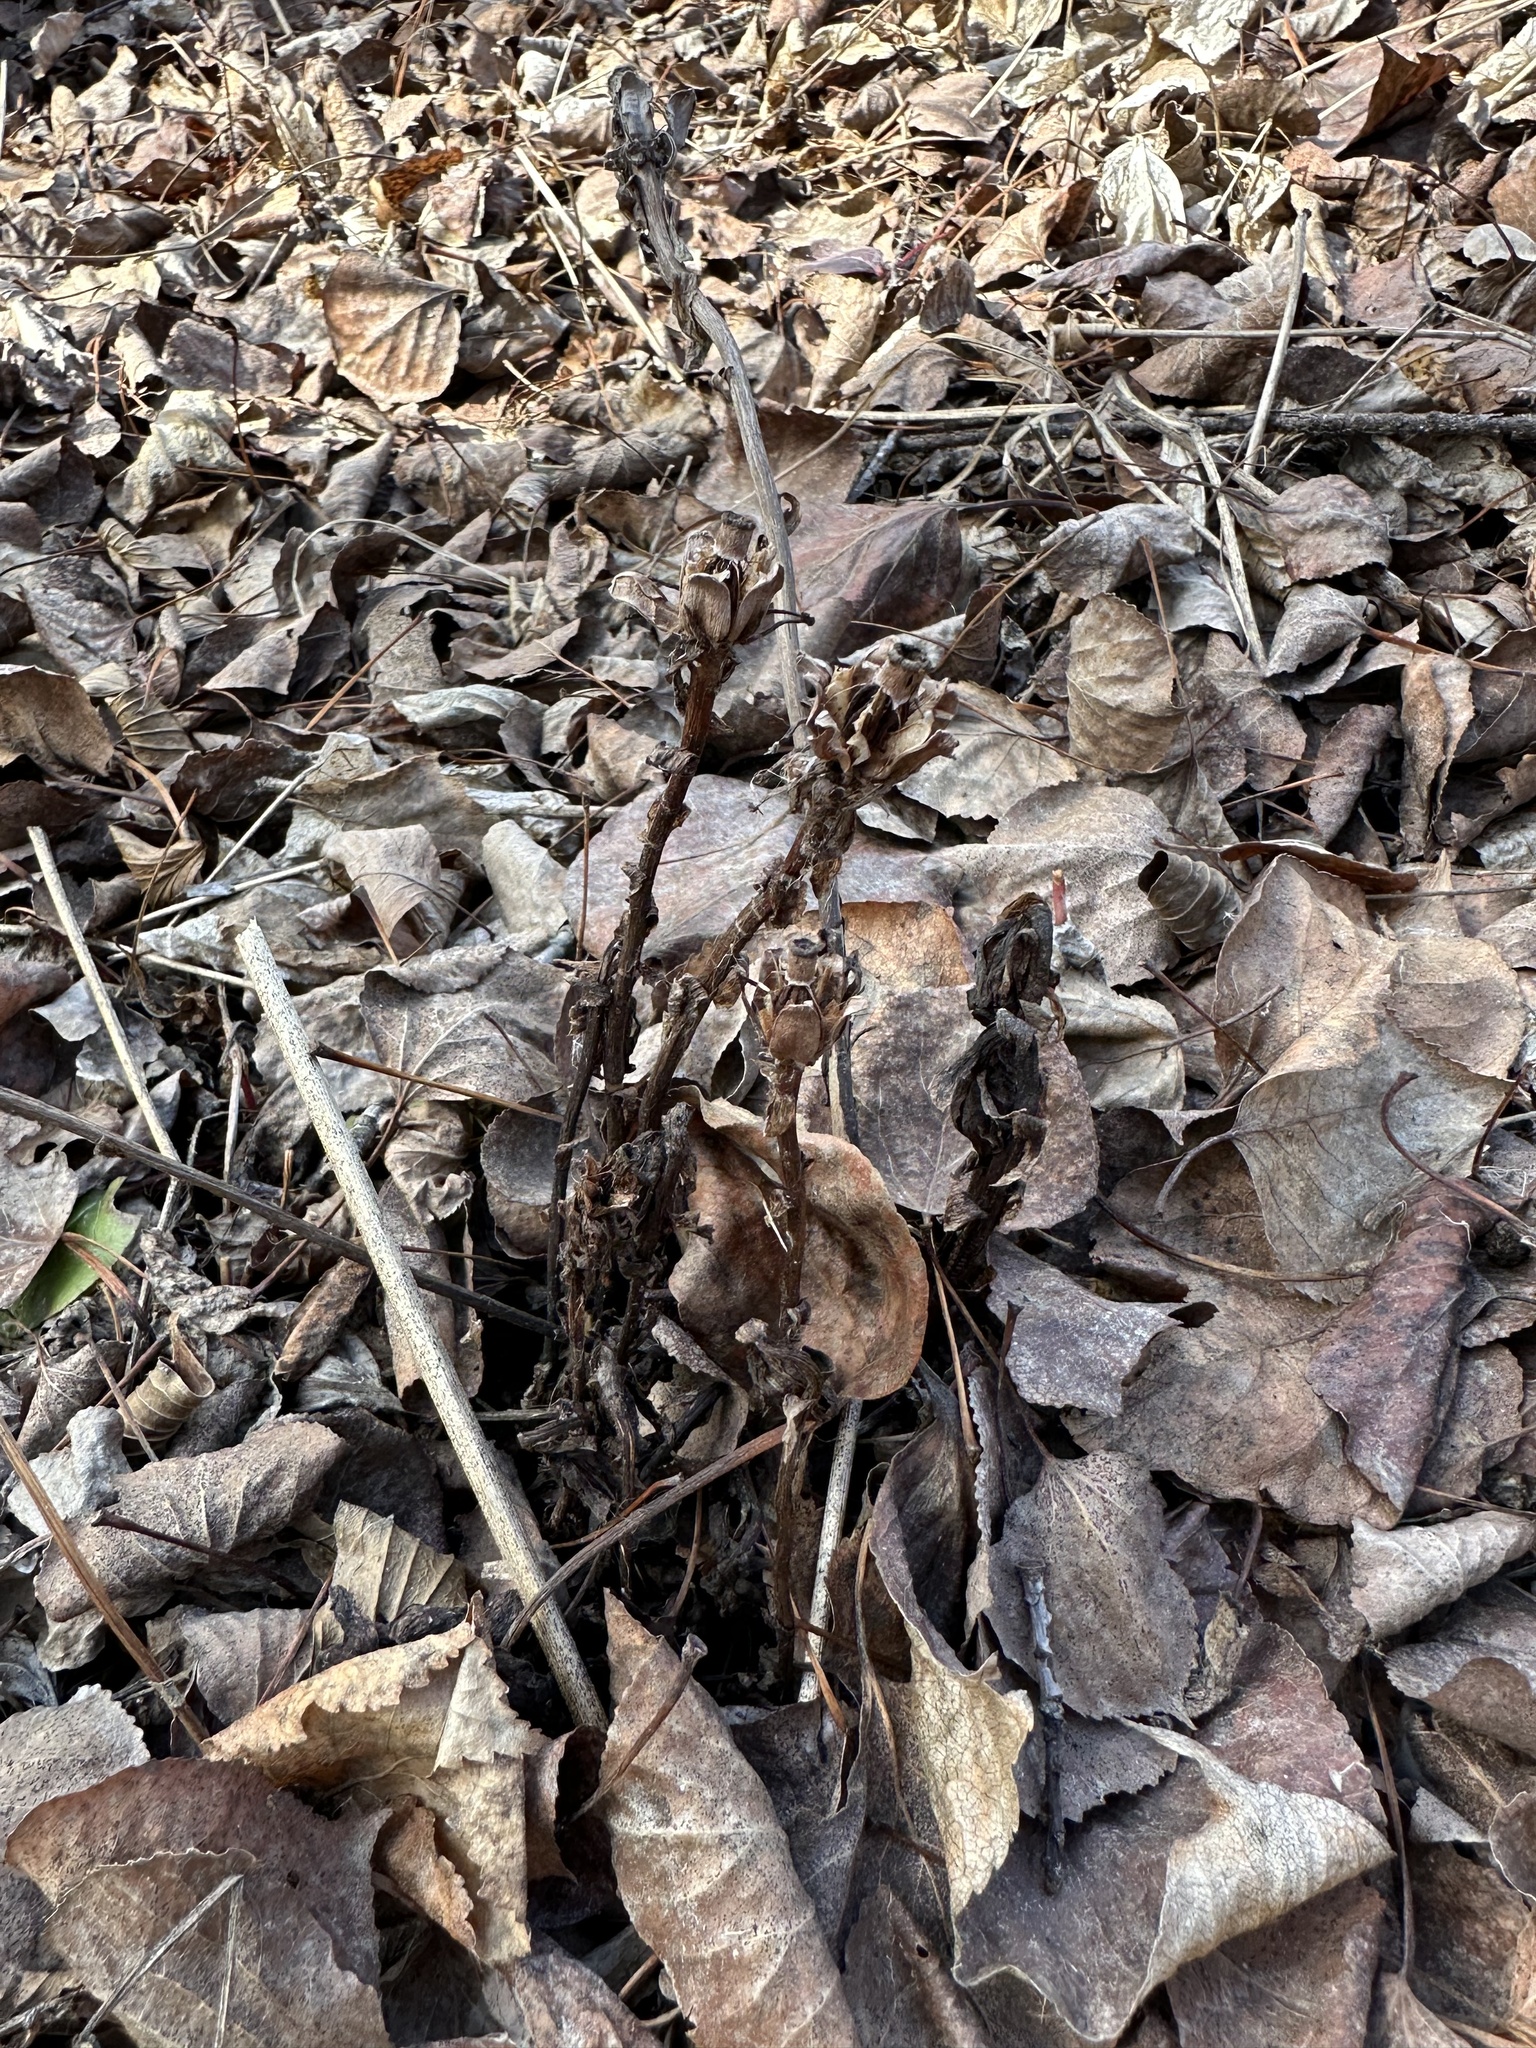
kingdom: Plantae
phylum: Tracheophyta
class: Magnoliopsida
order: Ericales
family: Ericaceae
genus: Monotropa
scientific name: Monotropa uniflora
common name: Convulsion root
